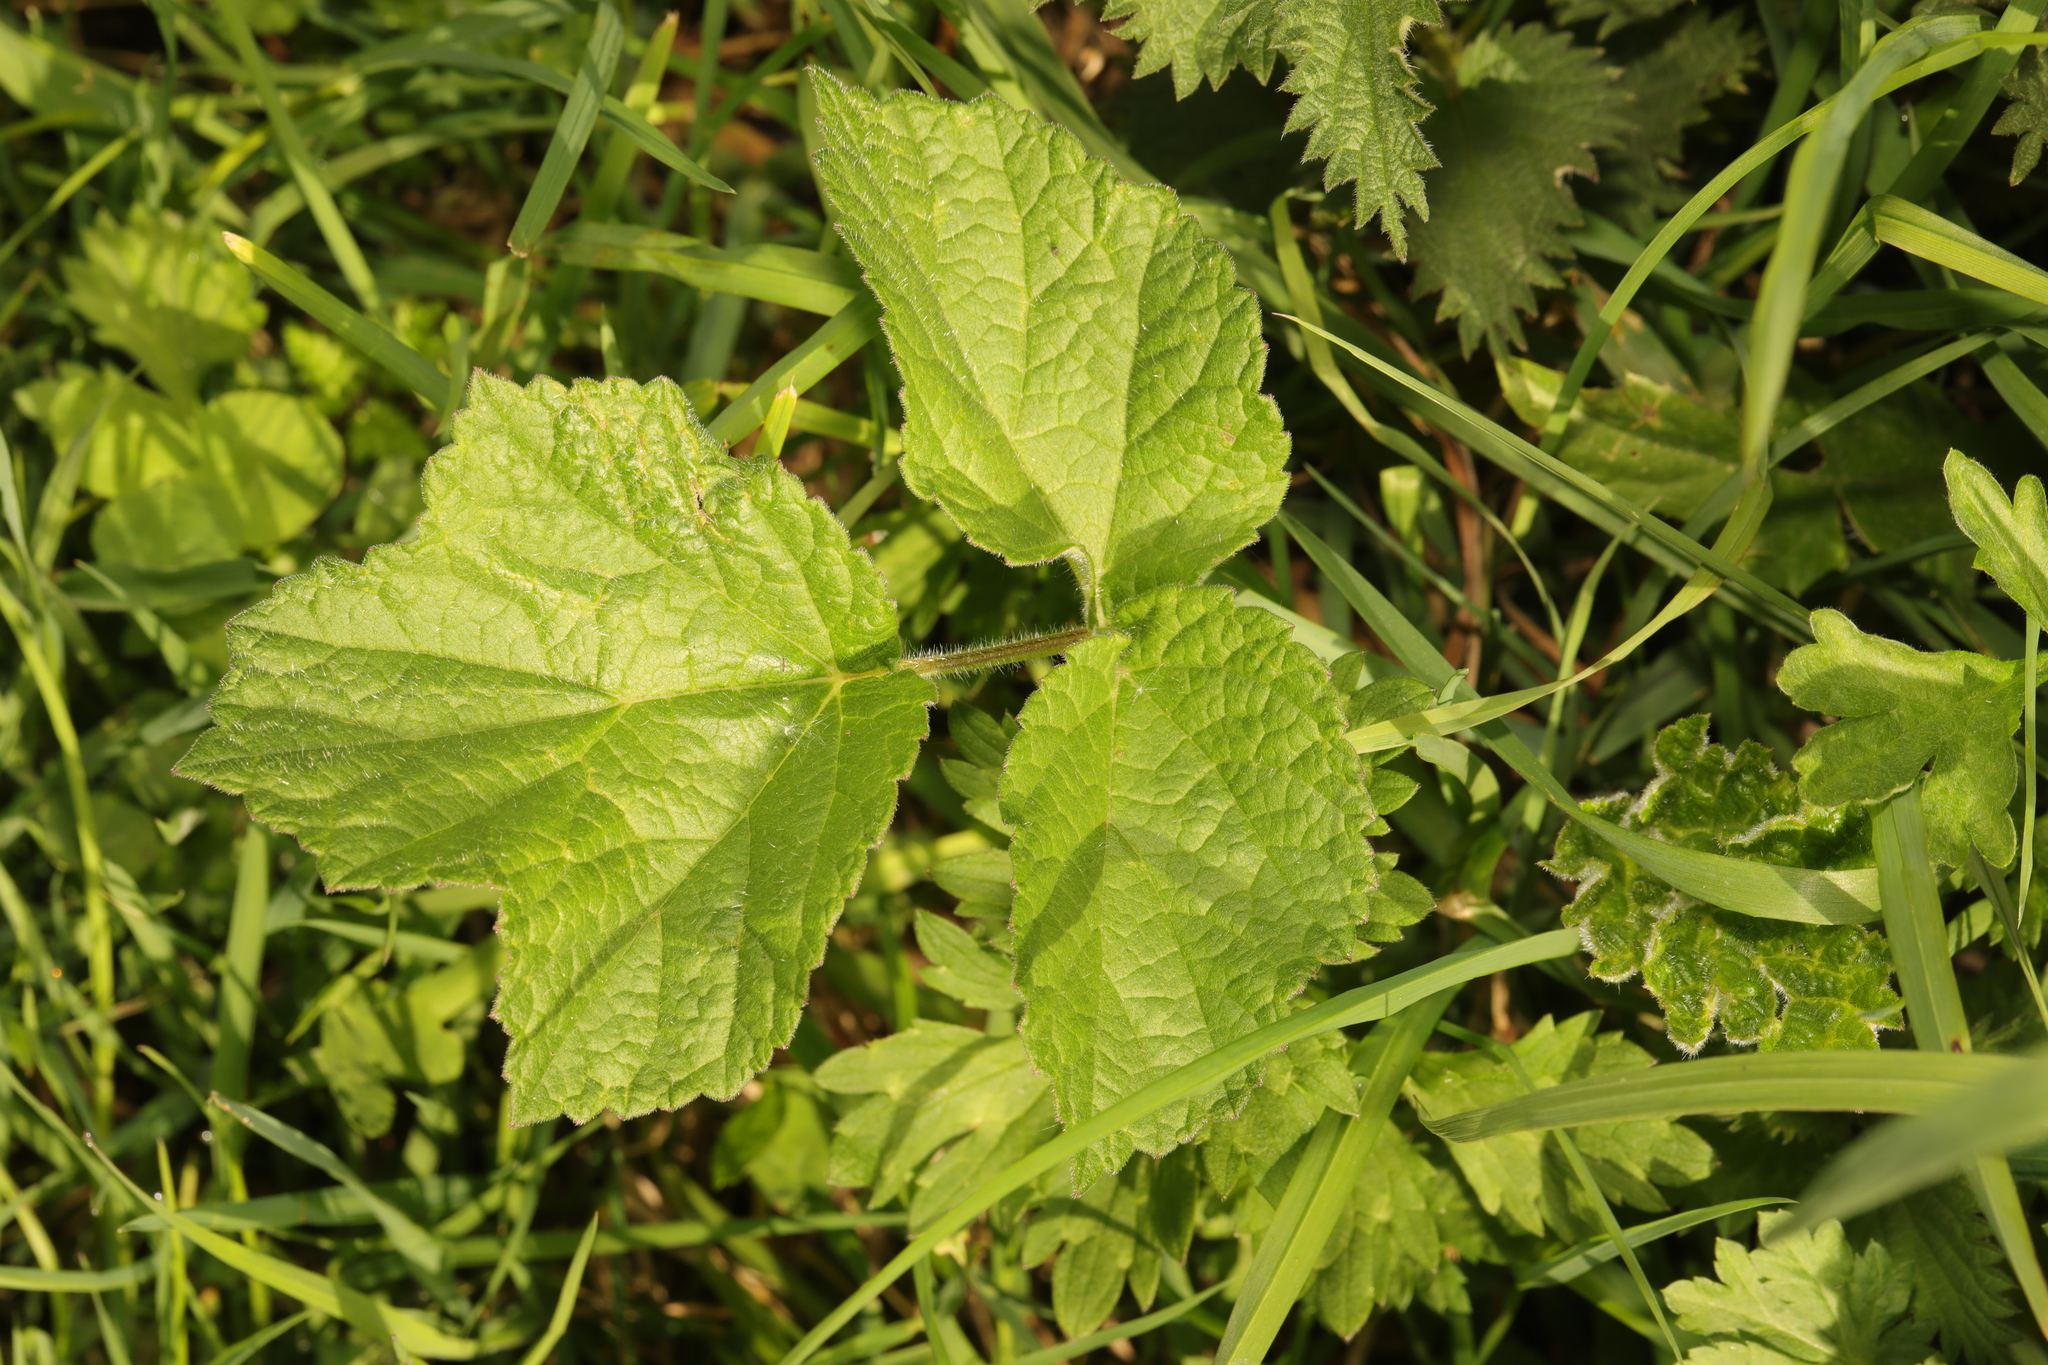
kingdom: Plantae
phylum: Tracheophyta
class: Magnoliopsida
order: Apiales
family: Apiaceae
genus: Heracleum
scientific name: Heracleum sphondylium
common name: Hogweed
